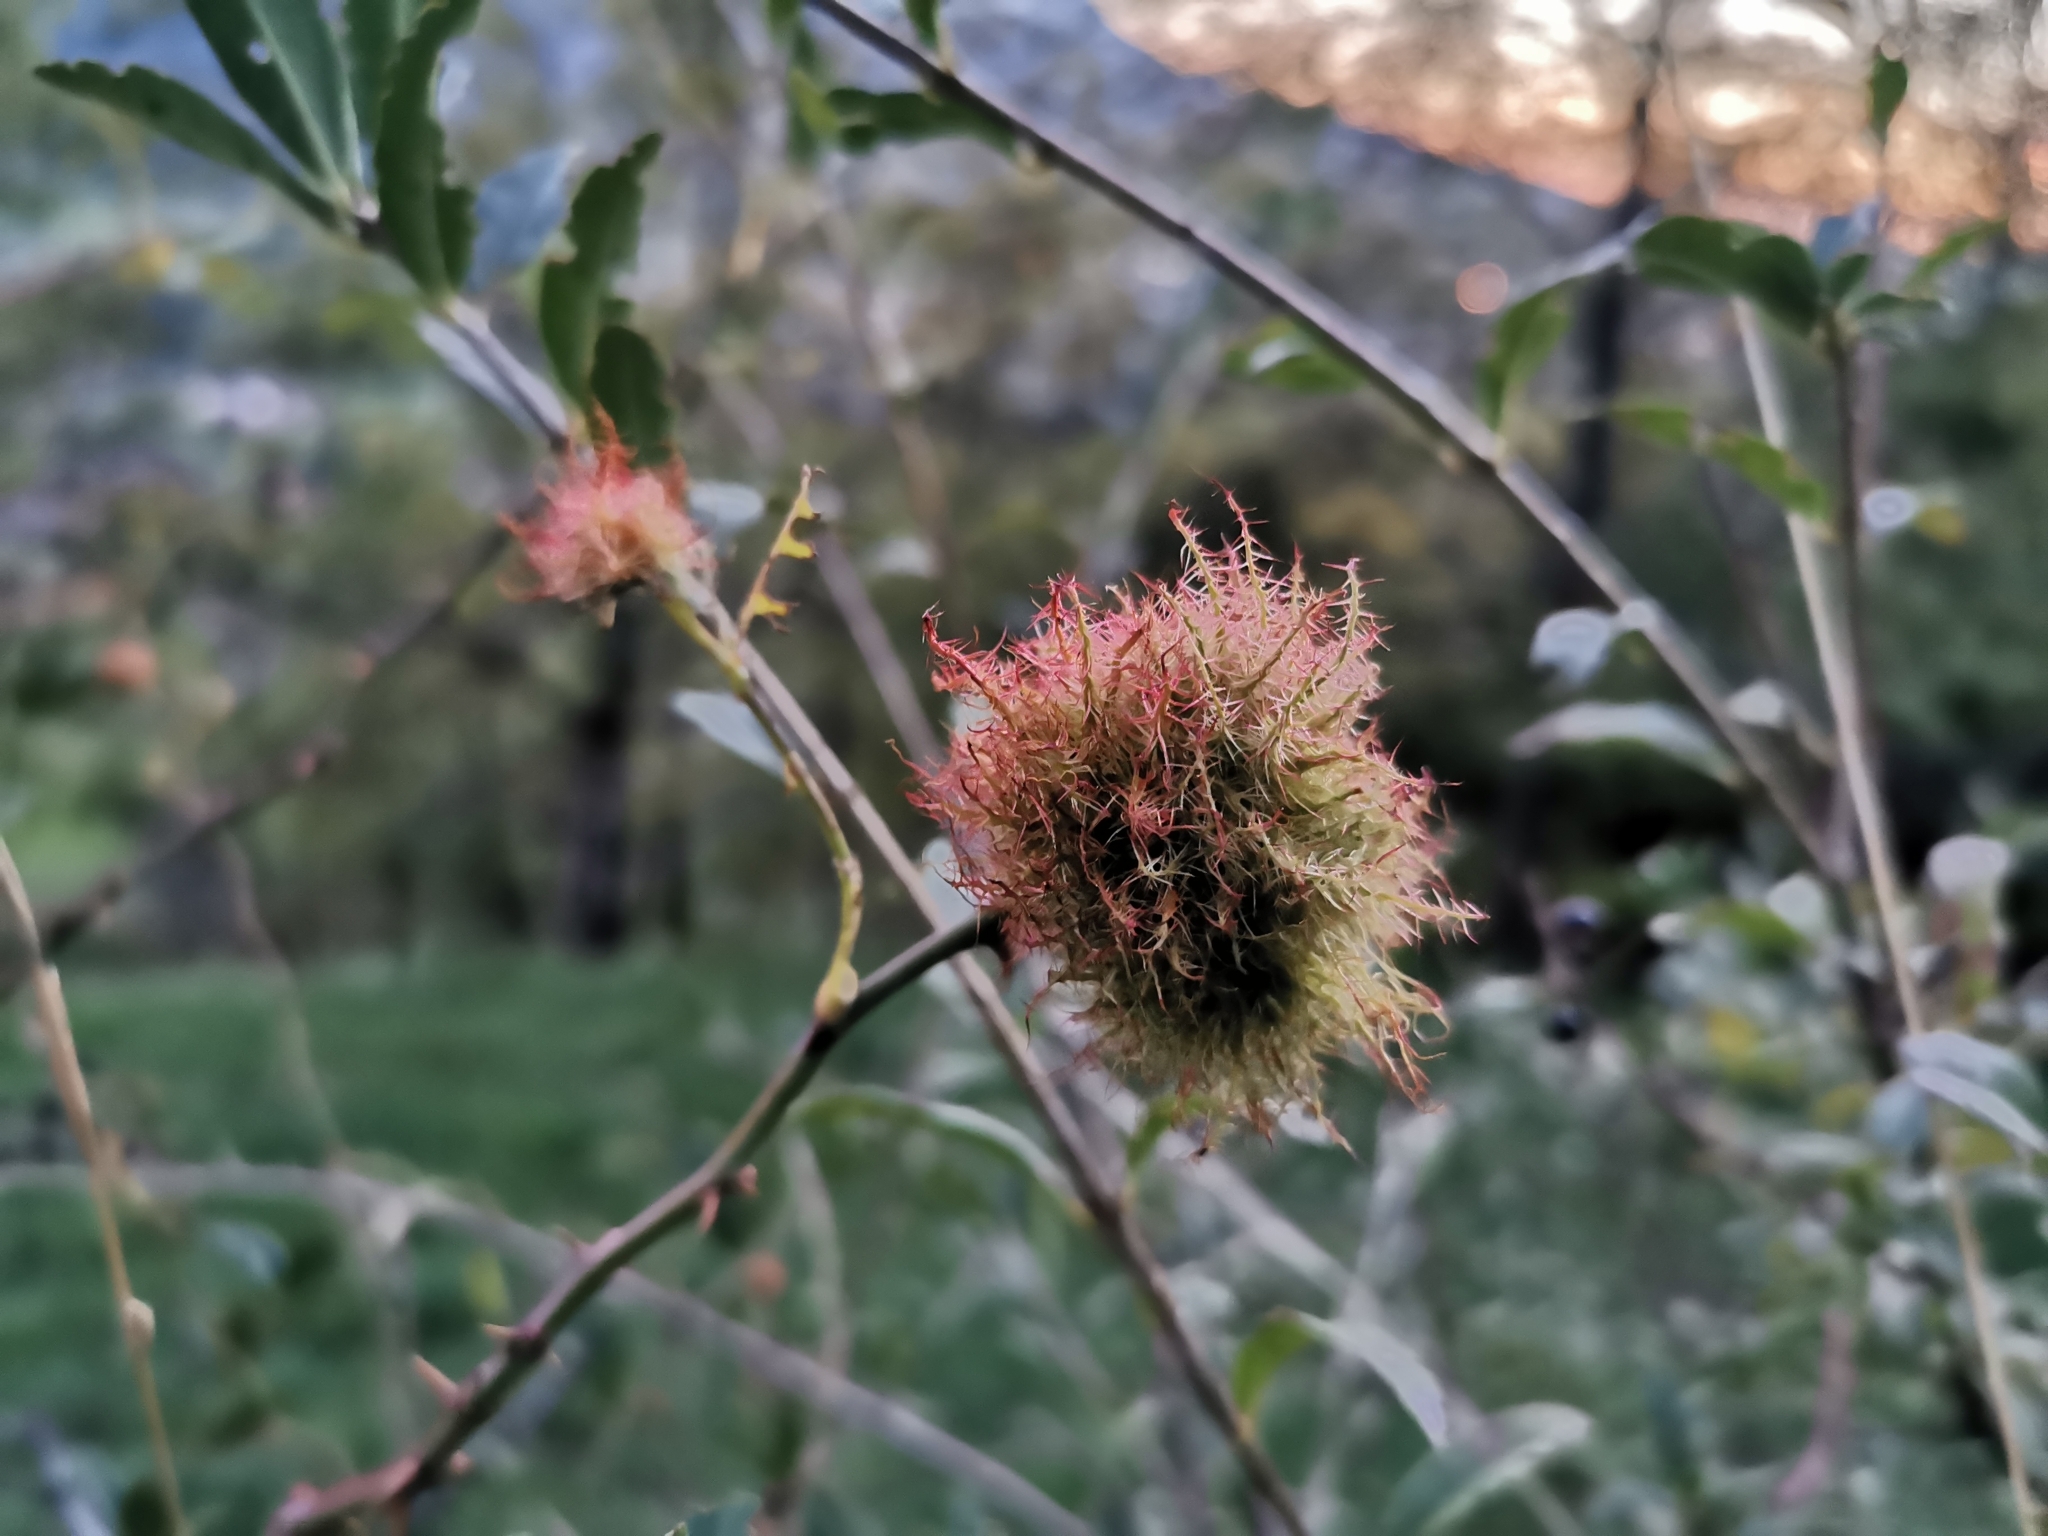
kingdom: Animalia
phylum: Arthropoda
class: Insecta
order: Hymenoptera
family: Cynipidae
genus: Diplolepis
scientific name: Diplolepis rosae
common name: Bedeguar gall
